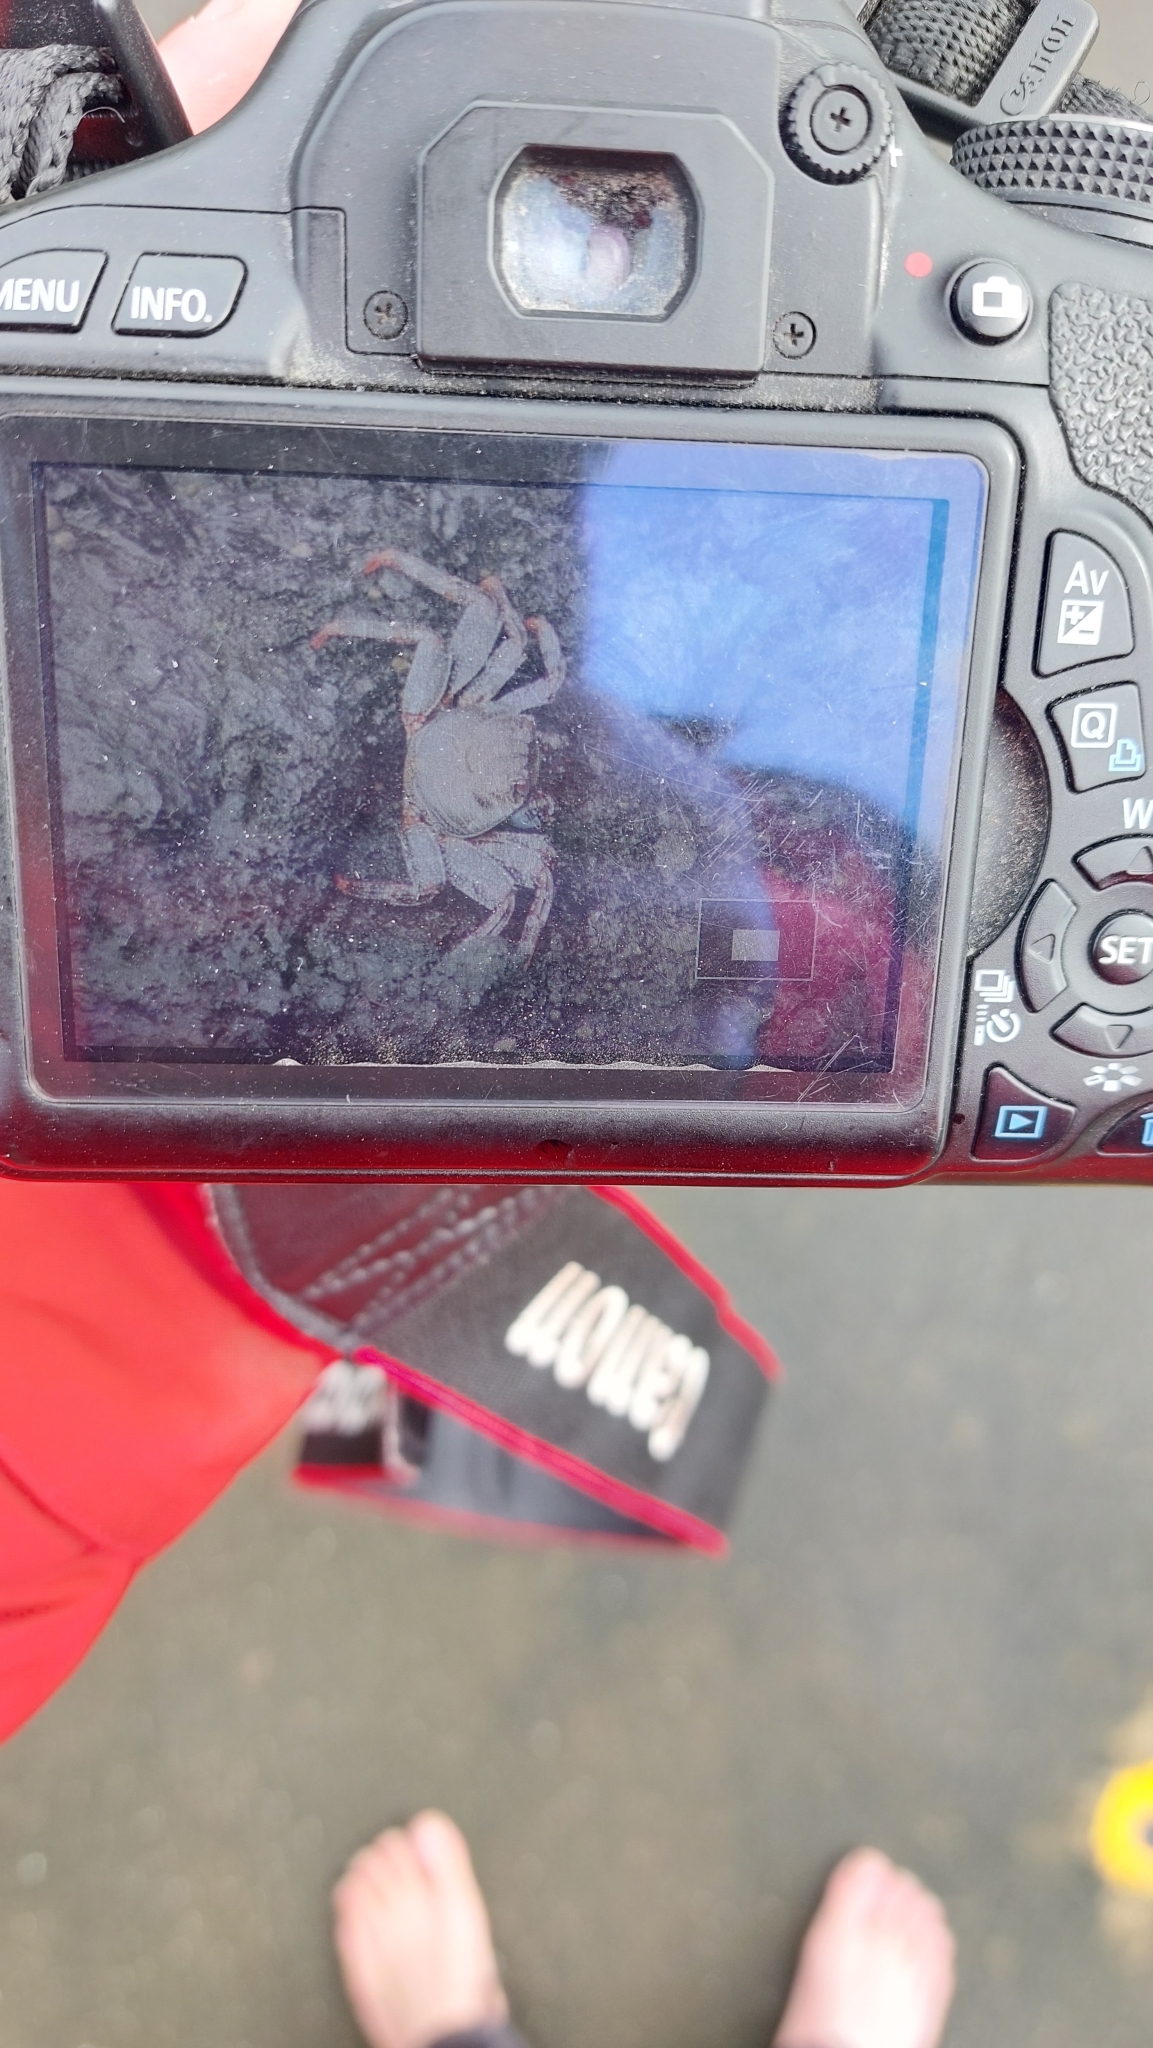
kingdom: Animalia
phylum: Arthropoda
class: Malacostraca
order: Decapoda
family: Grapsidae
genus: Grapsus
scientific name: Grapsus adscensionis
